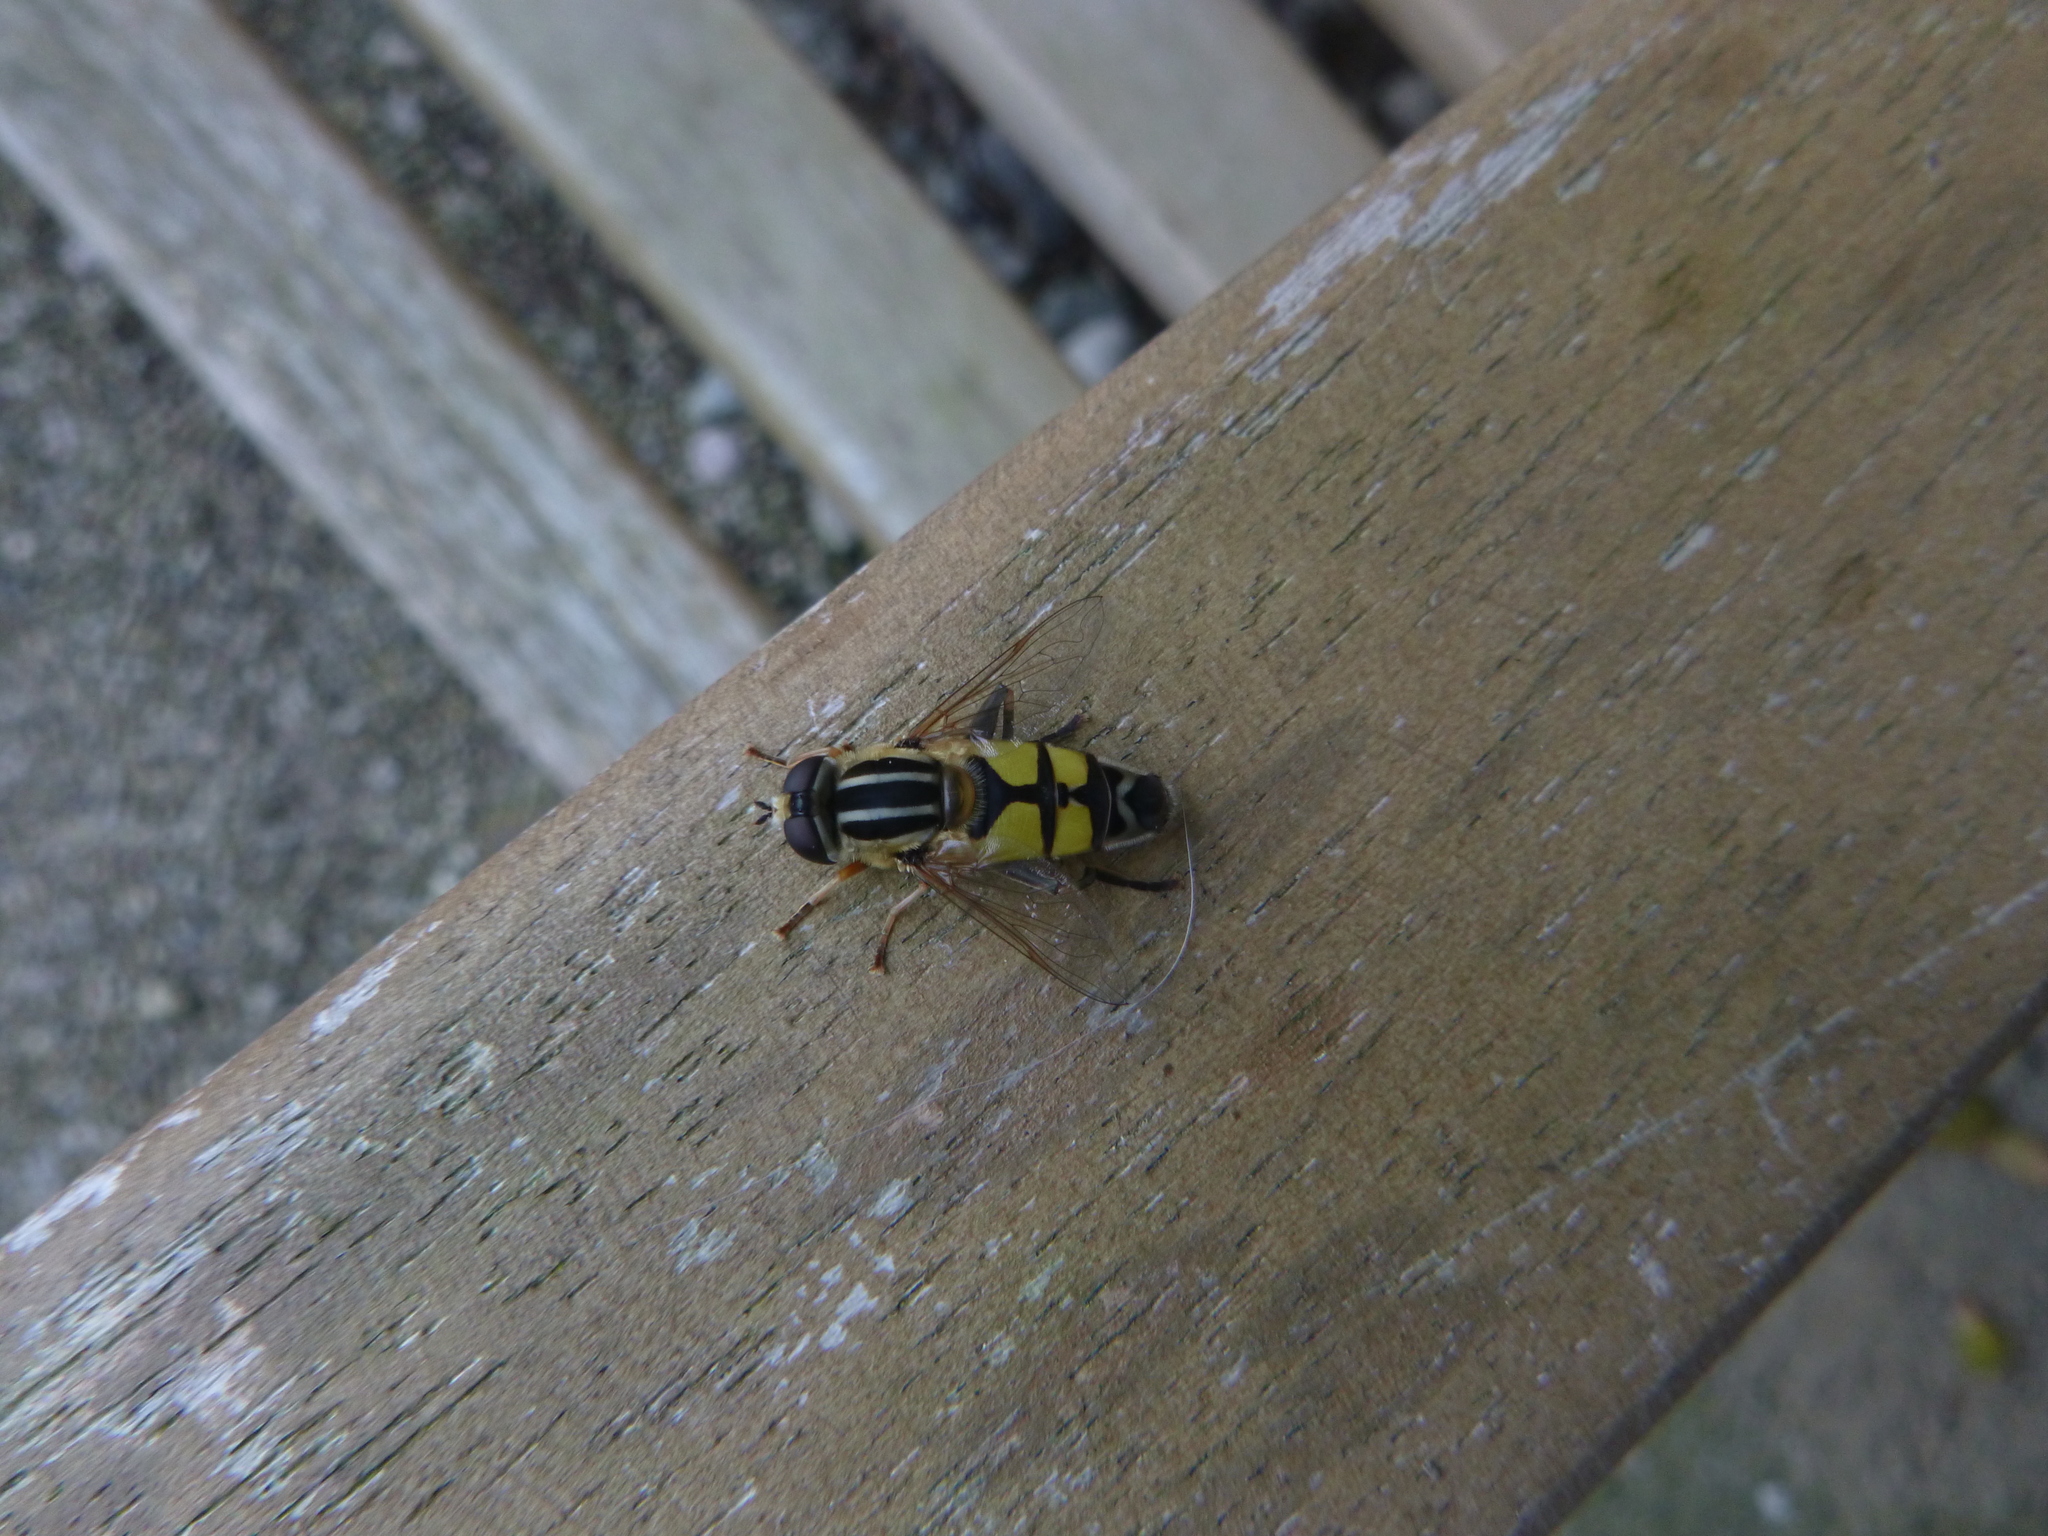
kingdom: Animalia
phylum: Arthropoda
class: Insecta
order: Diptera
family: Syrphidae
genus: Helophilus
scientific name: Helophilus trivittatus
